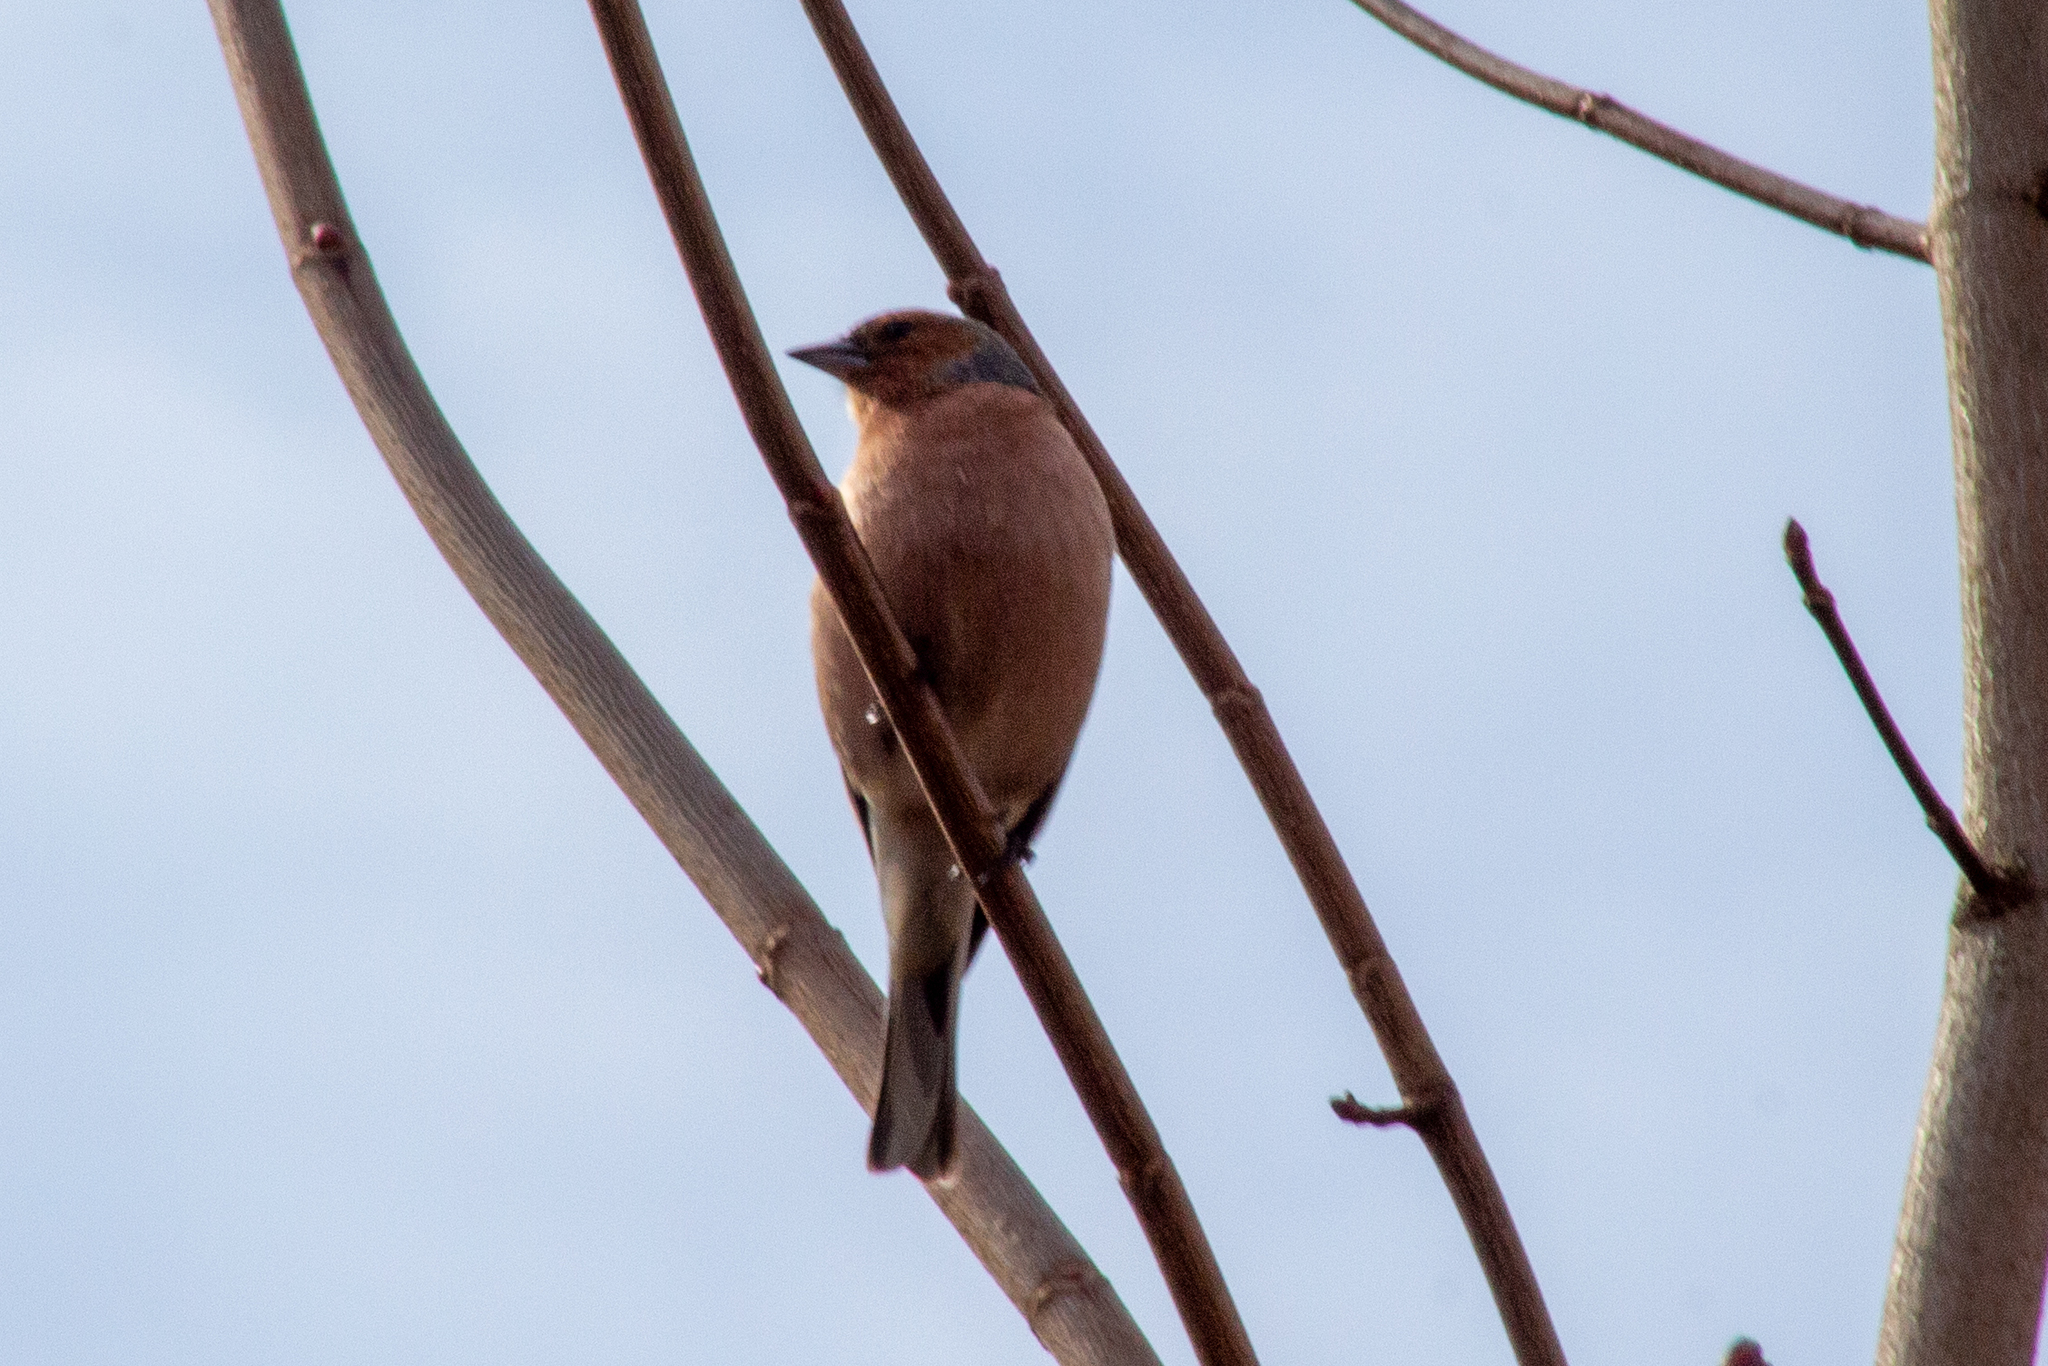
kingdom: Animalia
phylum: Chordata
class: Aves
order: Passeriformes
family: Fringillidae
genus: Fringilla
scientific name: Fringilla coelebs
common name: Common chaffinch
